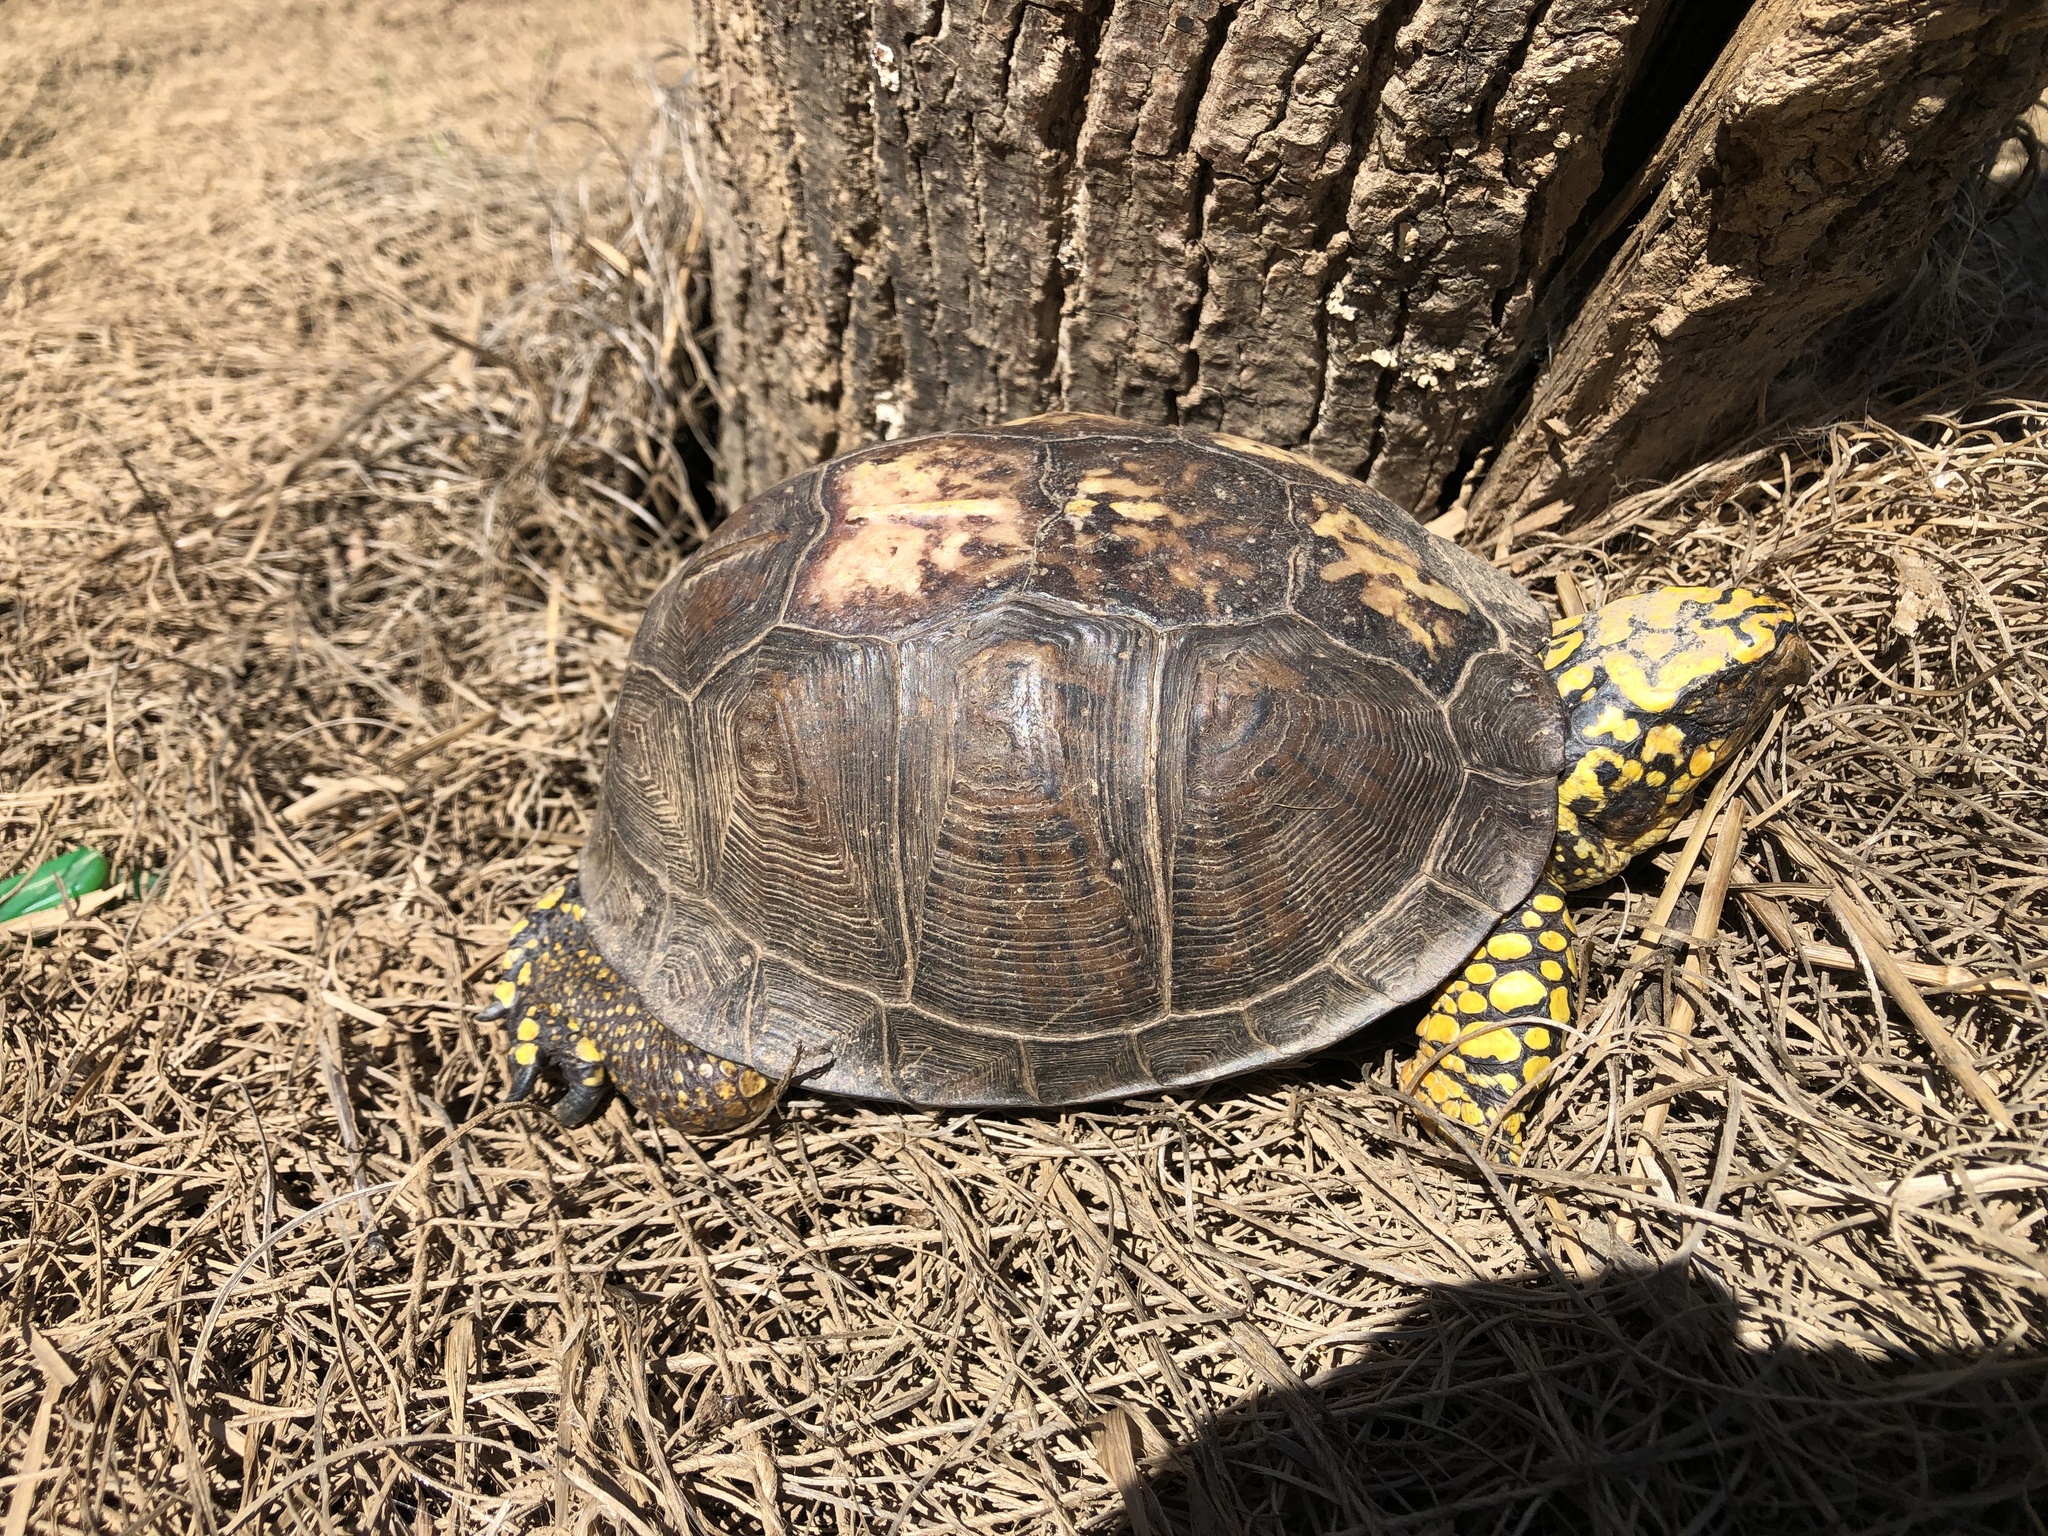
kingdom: Animalia
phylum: Chordata
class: Testudines
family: Emydidae
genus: Terrapene
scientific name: Terrapene carolina
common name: Common box turtle
